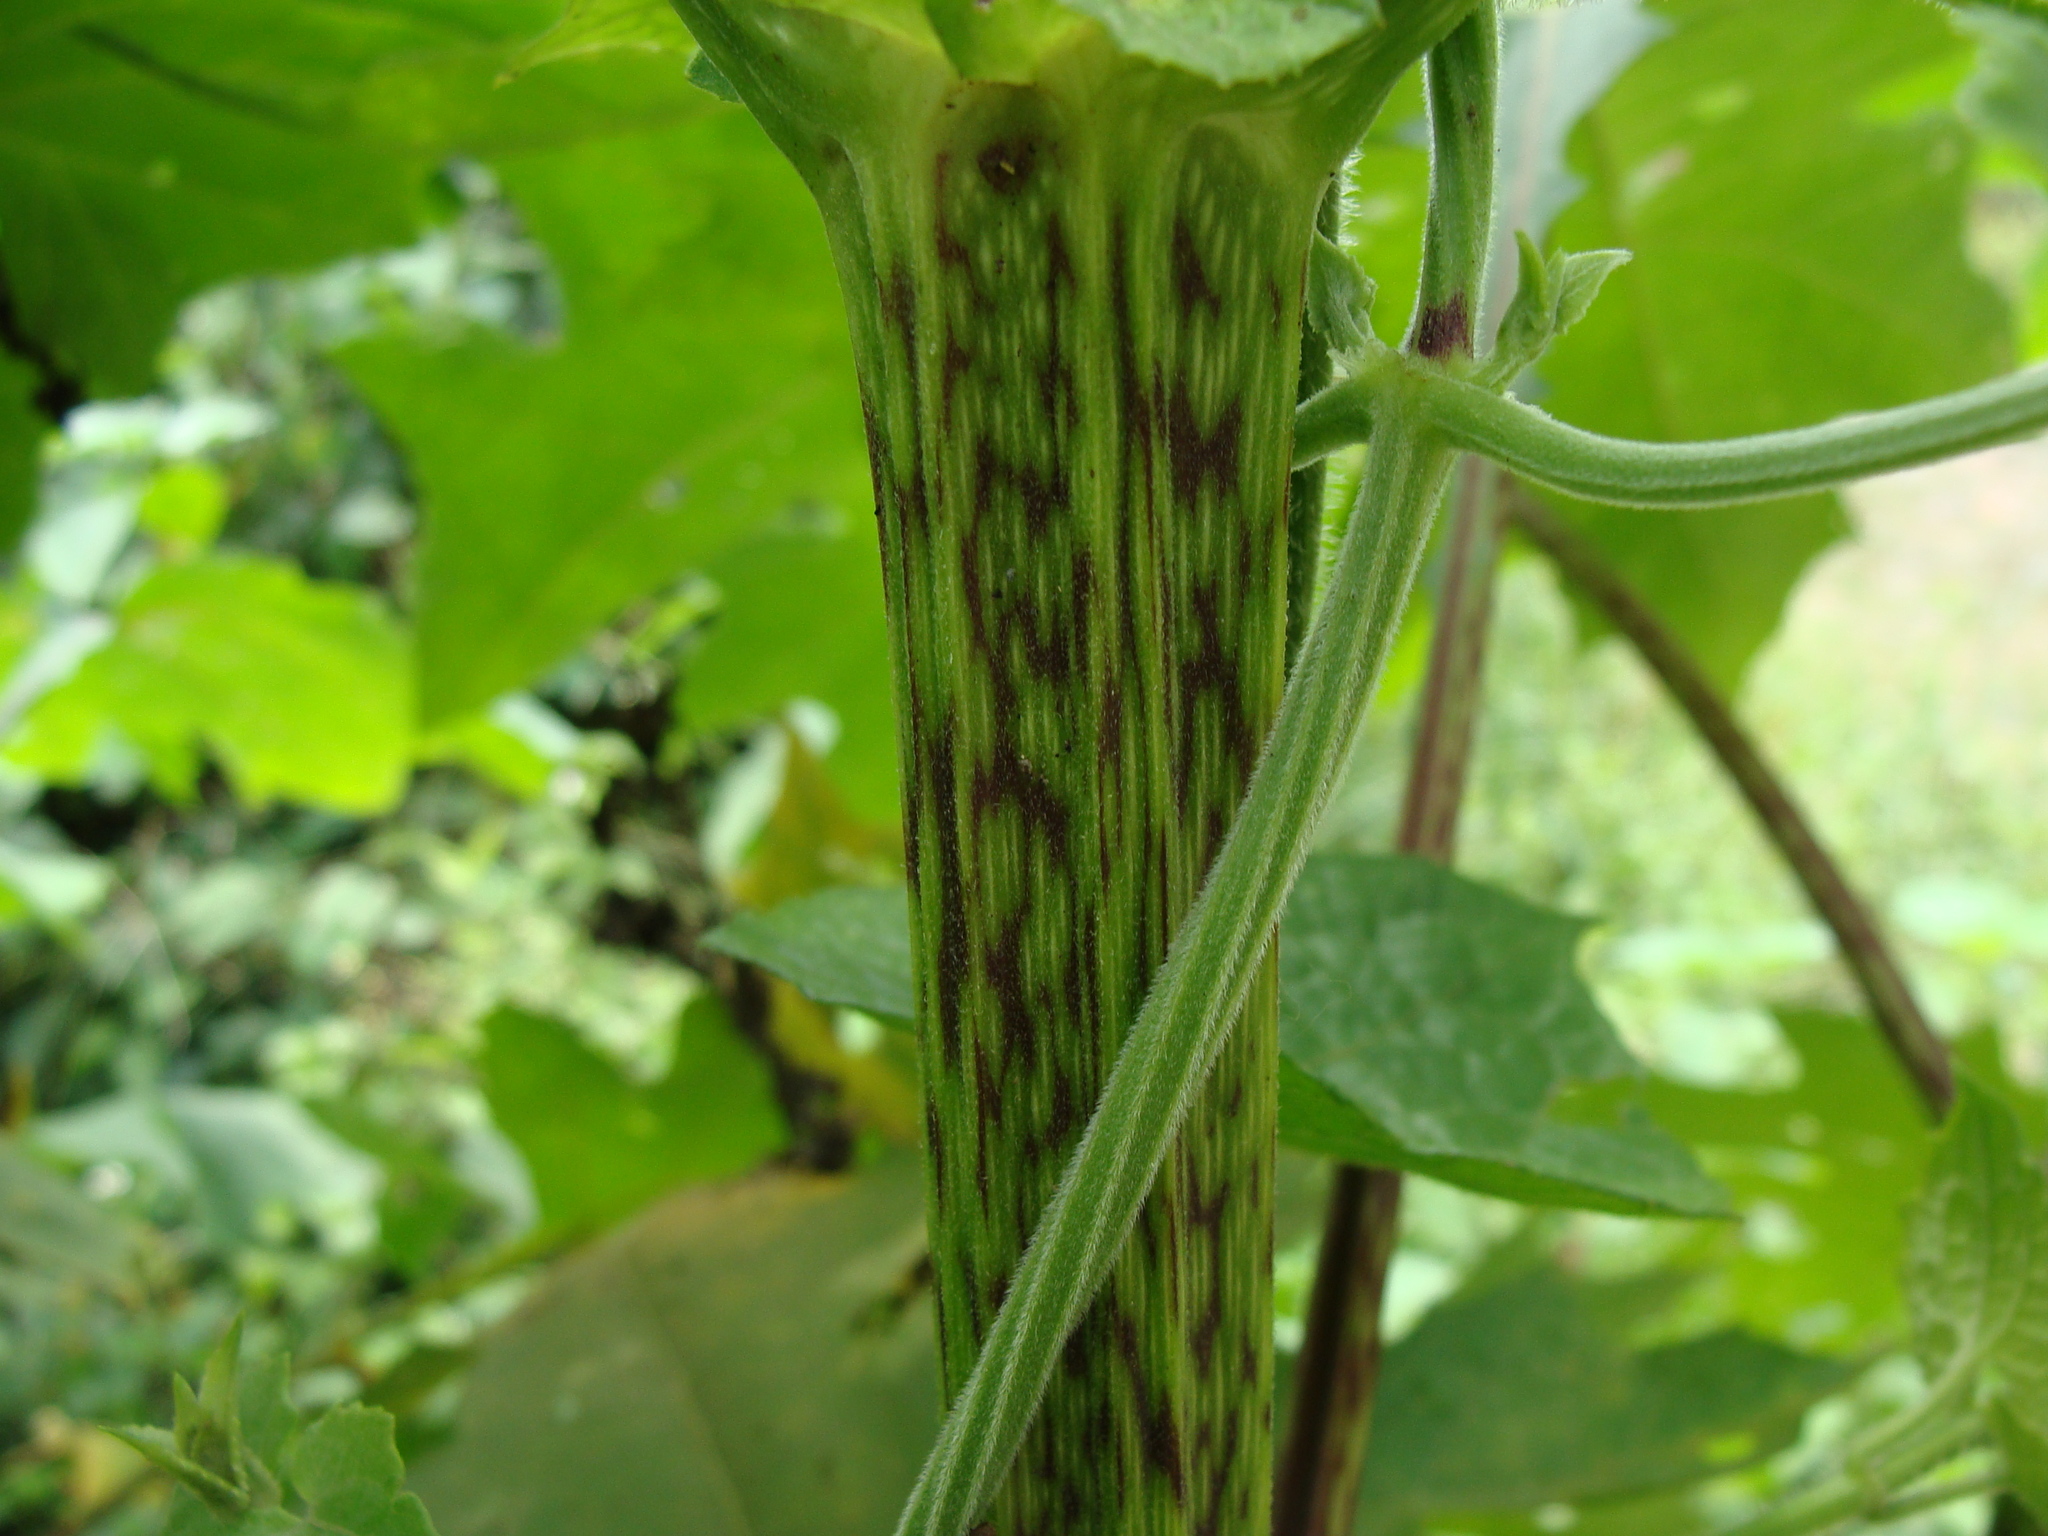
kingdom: Plantae
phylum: Tracheophyta
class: Magnoliopsida
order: Asterales
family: Asteraceae
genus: Smallanthus
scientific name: Smallanthus maculatus
